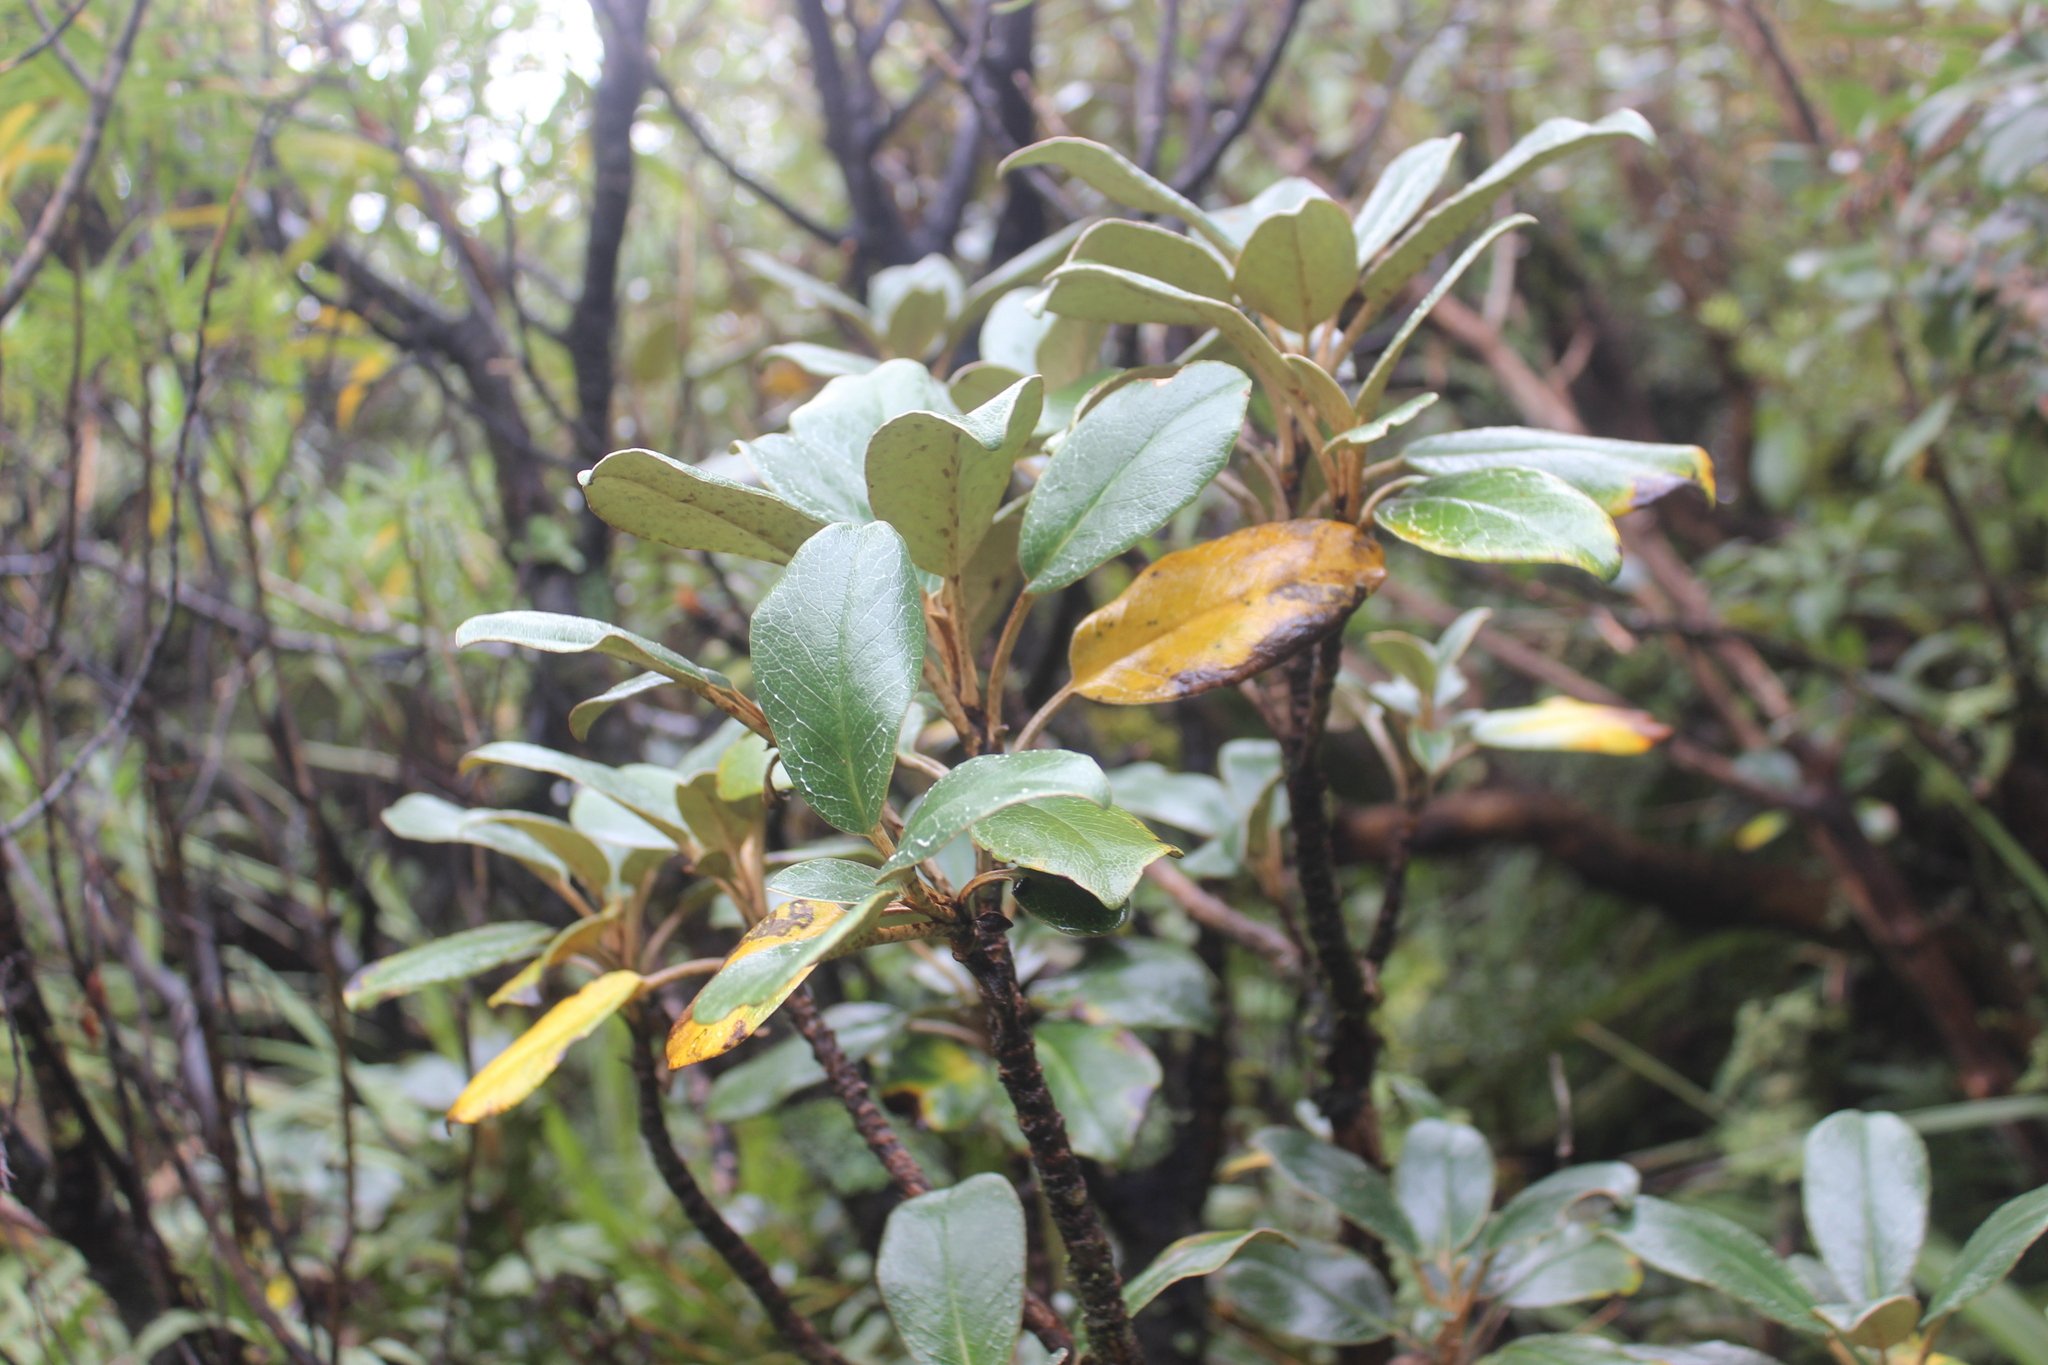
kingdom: Plantae
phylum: Tracheophyta
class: Magnoliopsida
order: Asterales
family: Asteraceae
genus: Brachyglottis
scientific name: Brachyglottis elaeagnifolia
